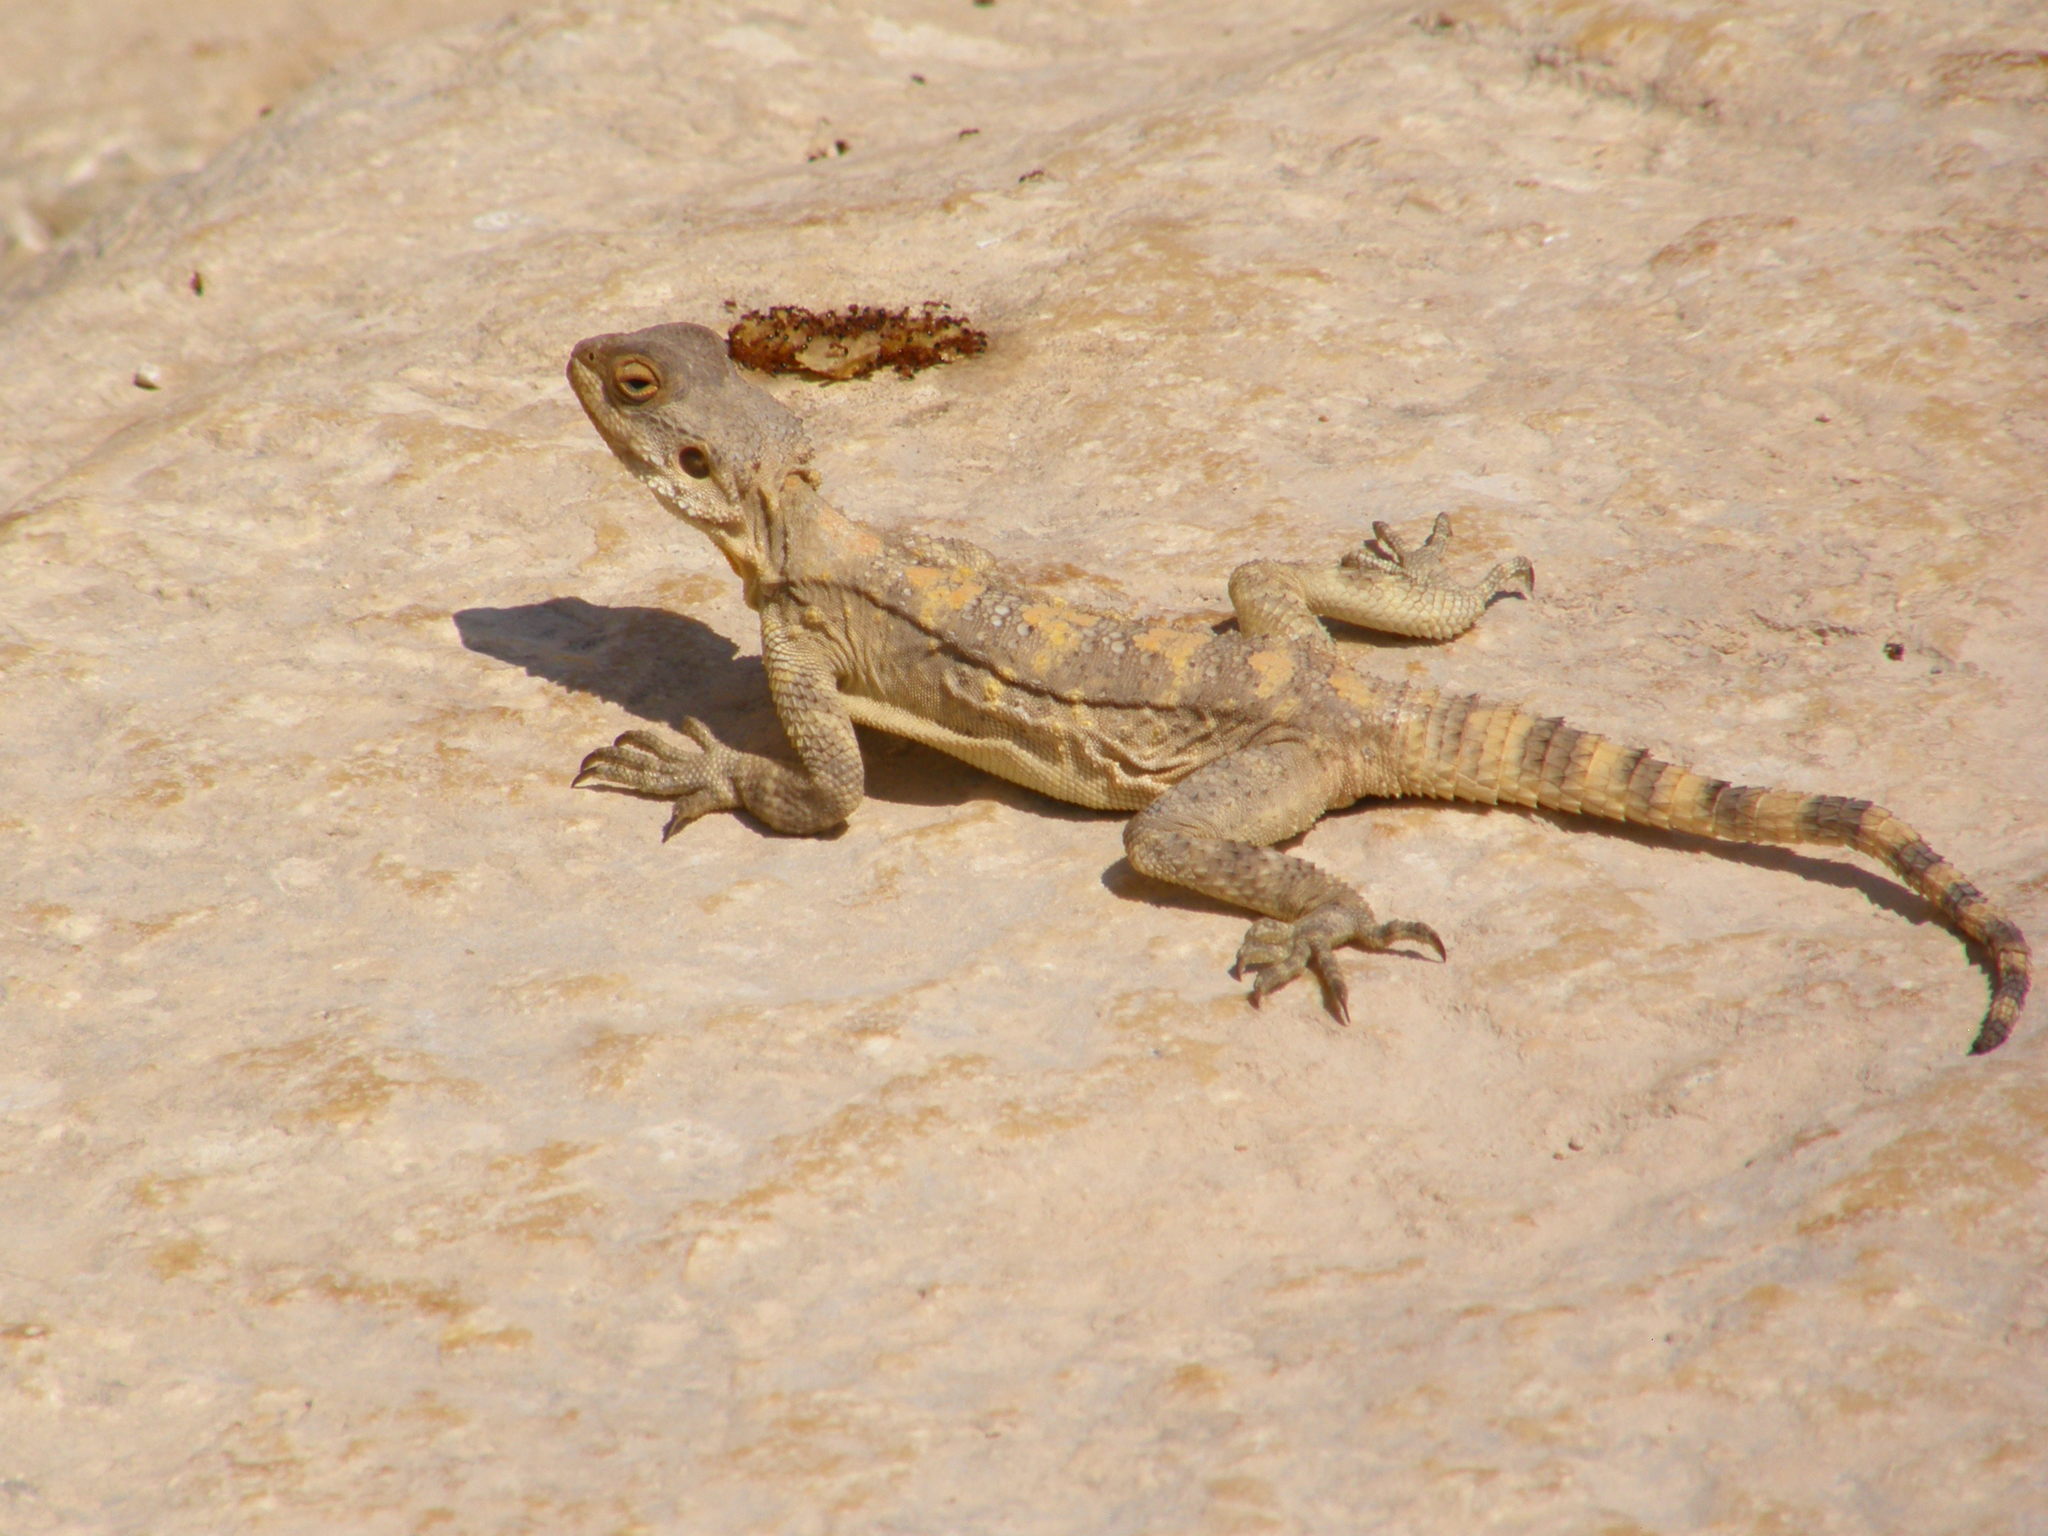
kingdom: Animalia
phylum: Chordata
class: Squamata
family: Agamidae
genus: Laudakia
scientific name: Laudakia vulgaris
